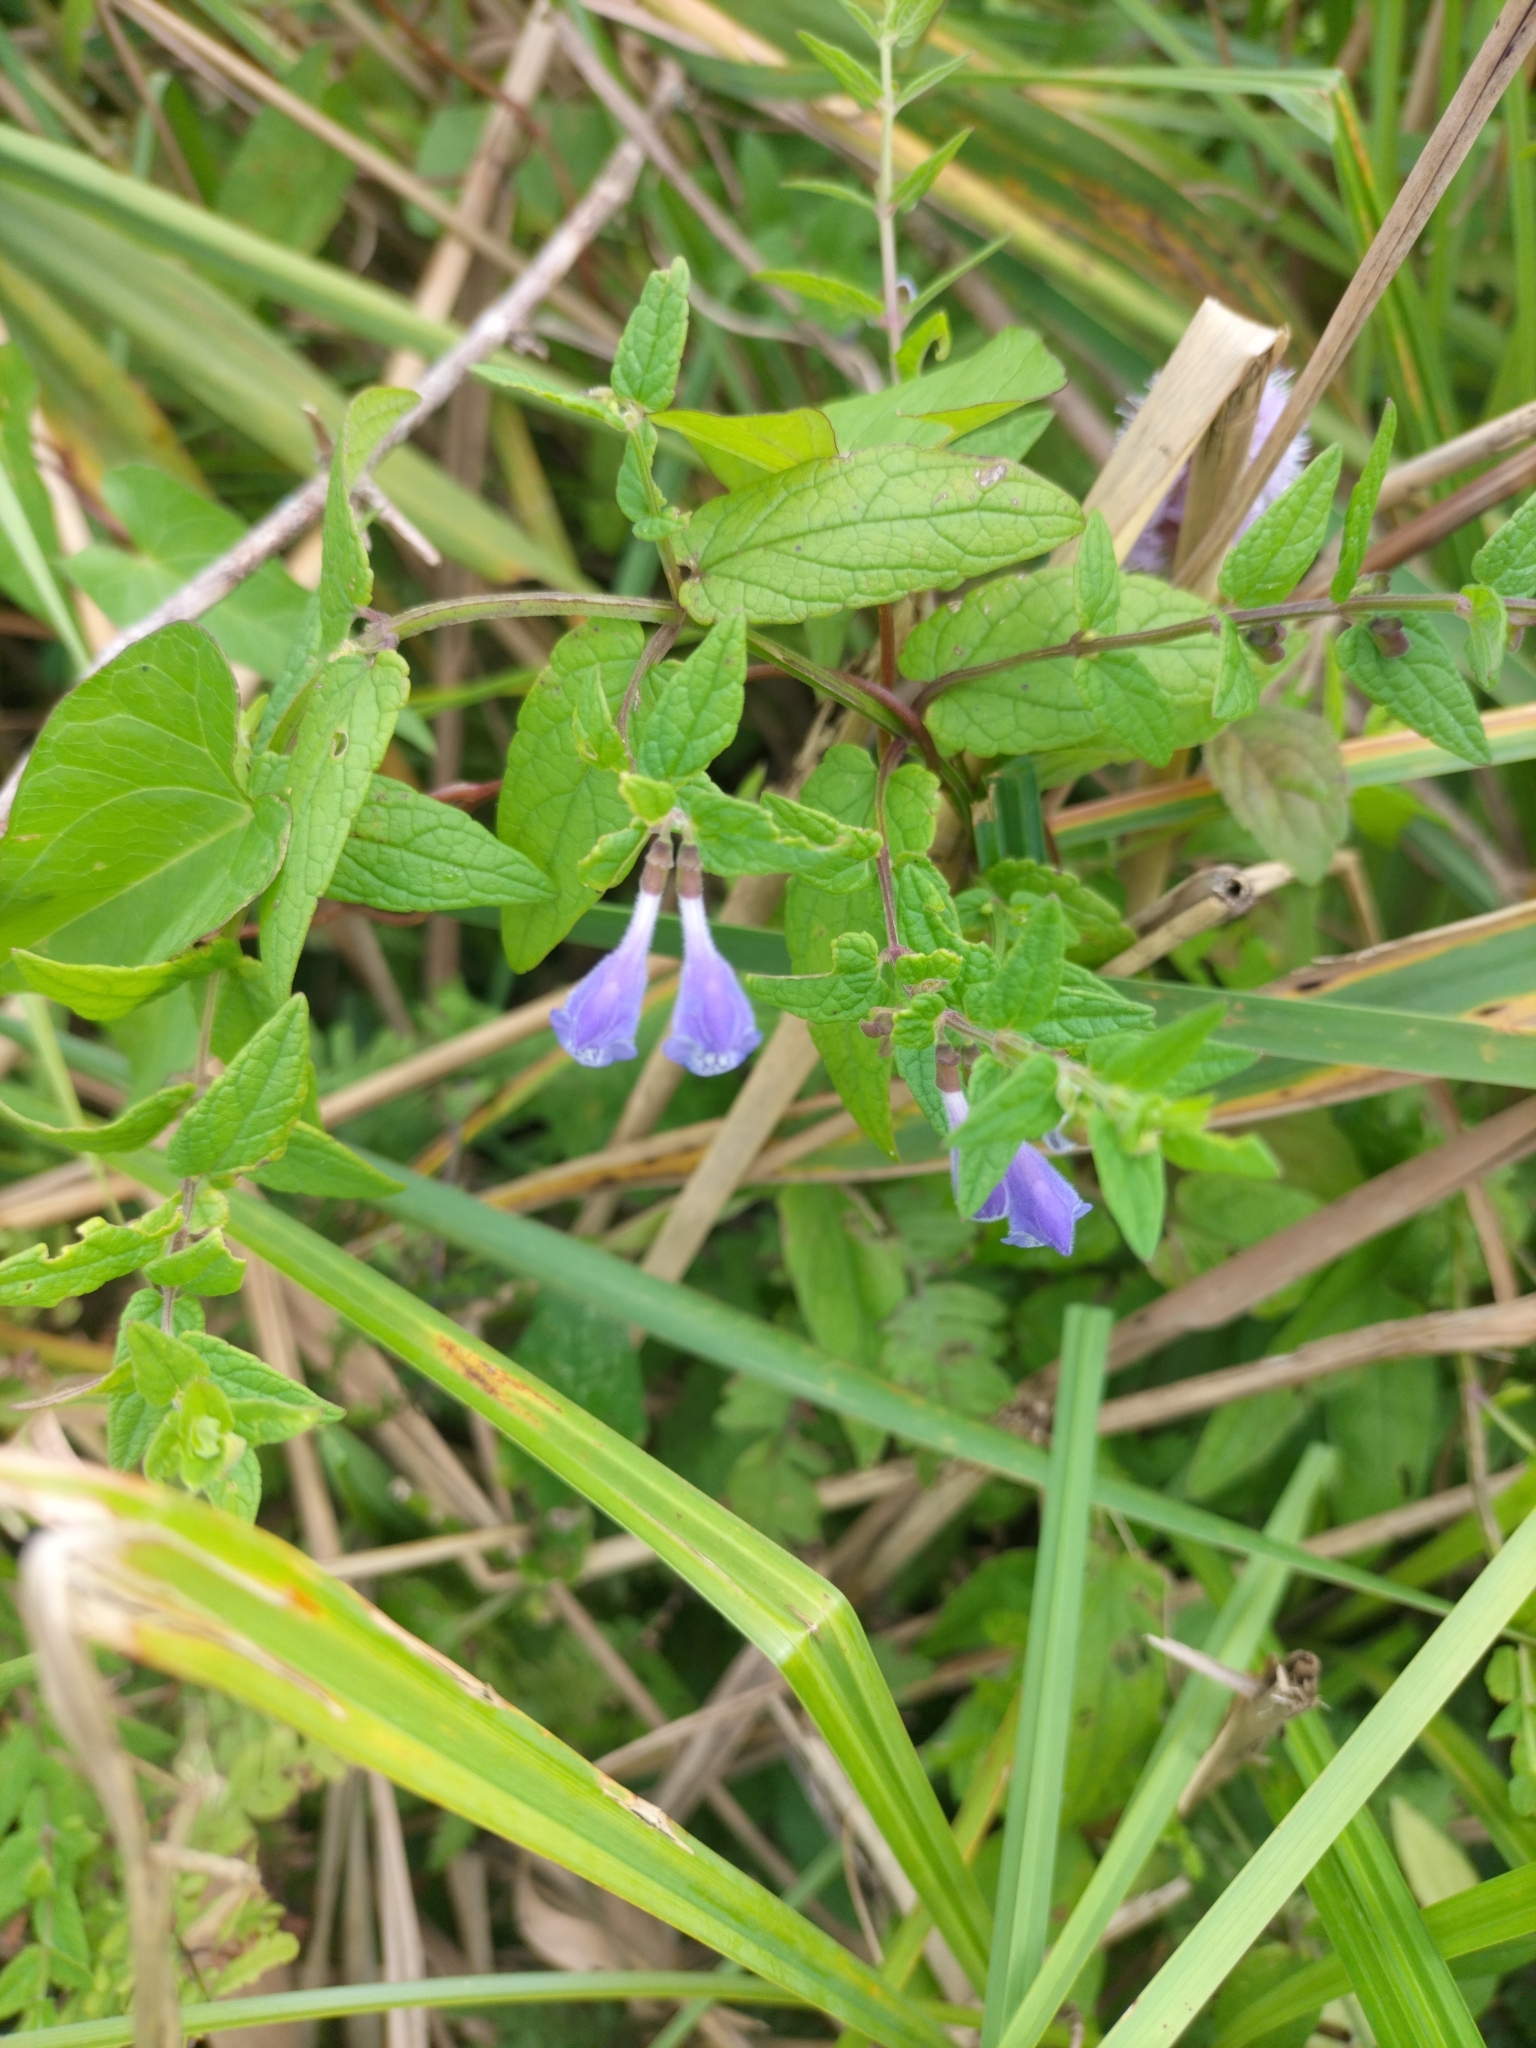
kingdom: Plantae
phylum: Tracheophyta
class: Magnoliopsida
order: Lamiales
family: Lamiaceae
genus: Scutellaria
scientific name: Scutellaria galericulata
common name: Skullcap
